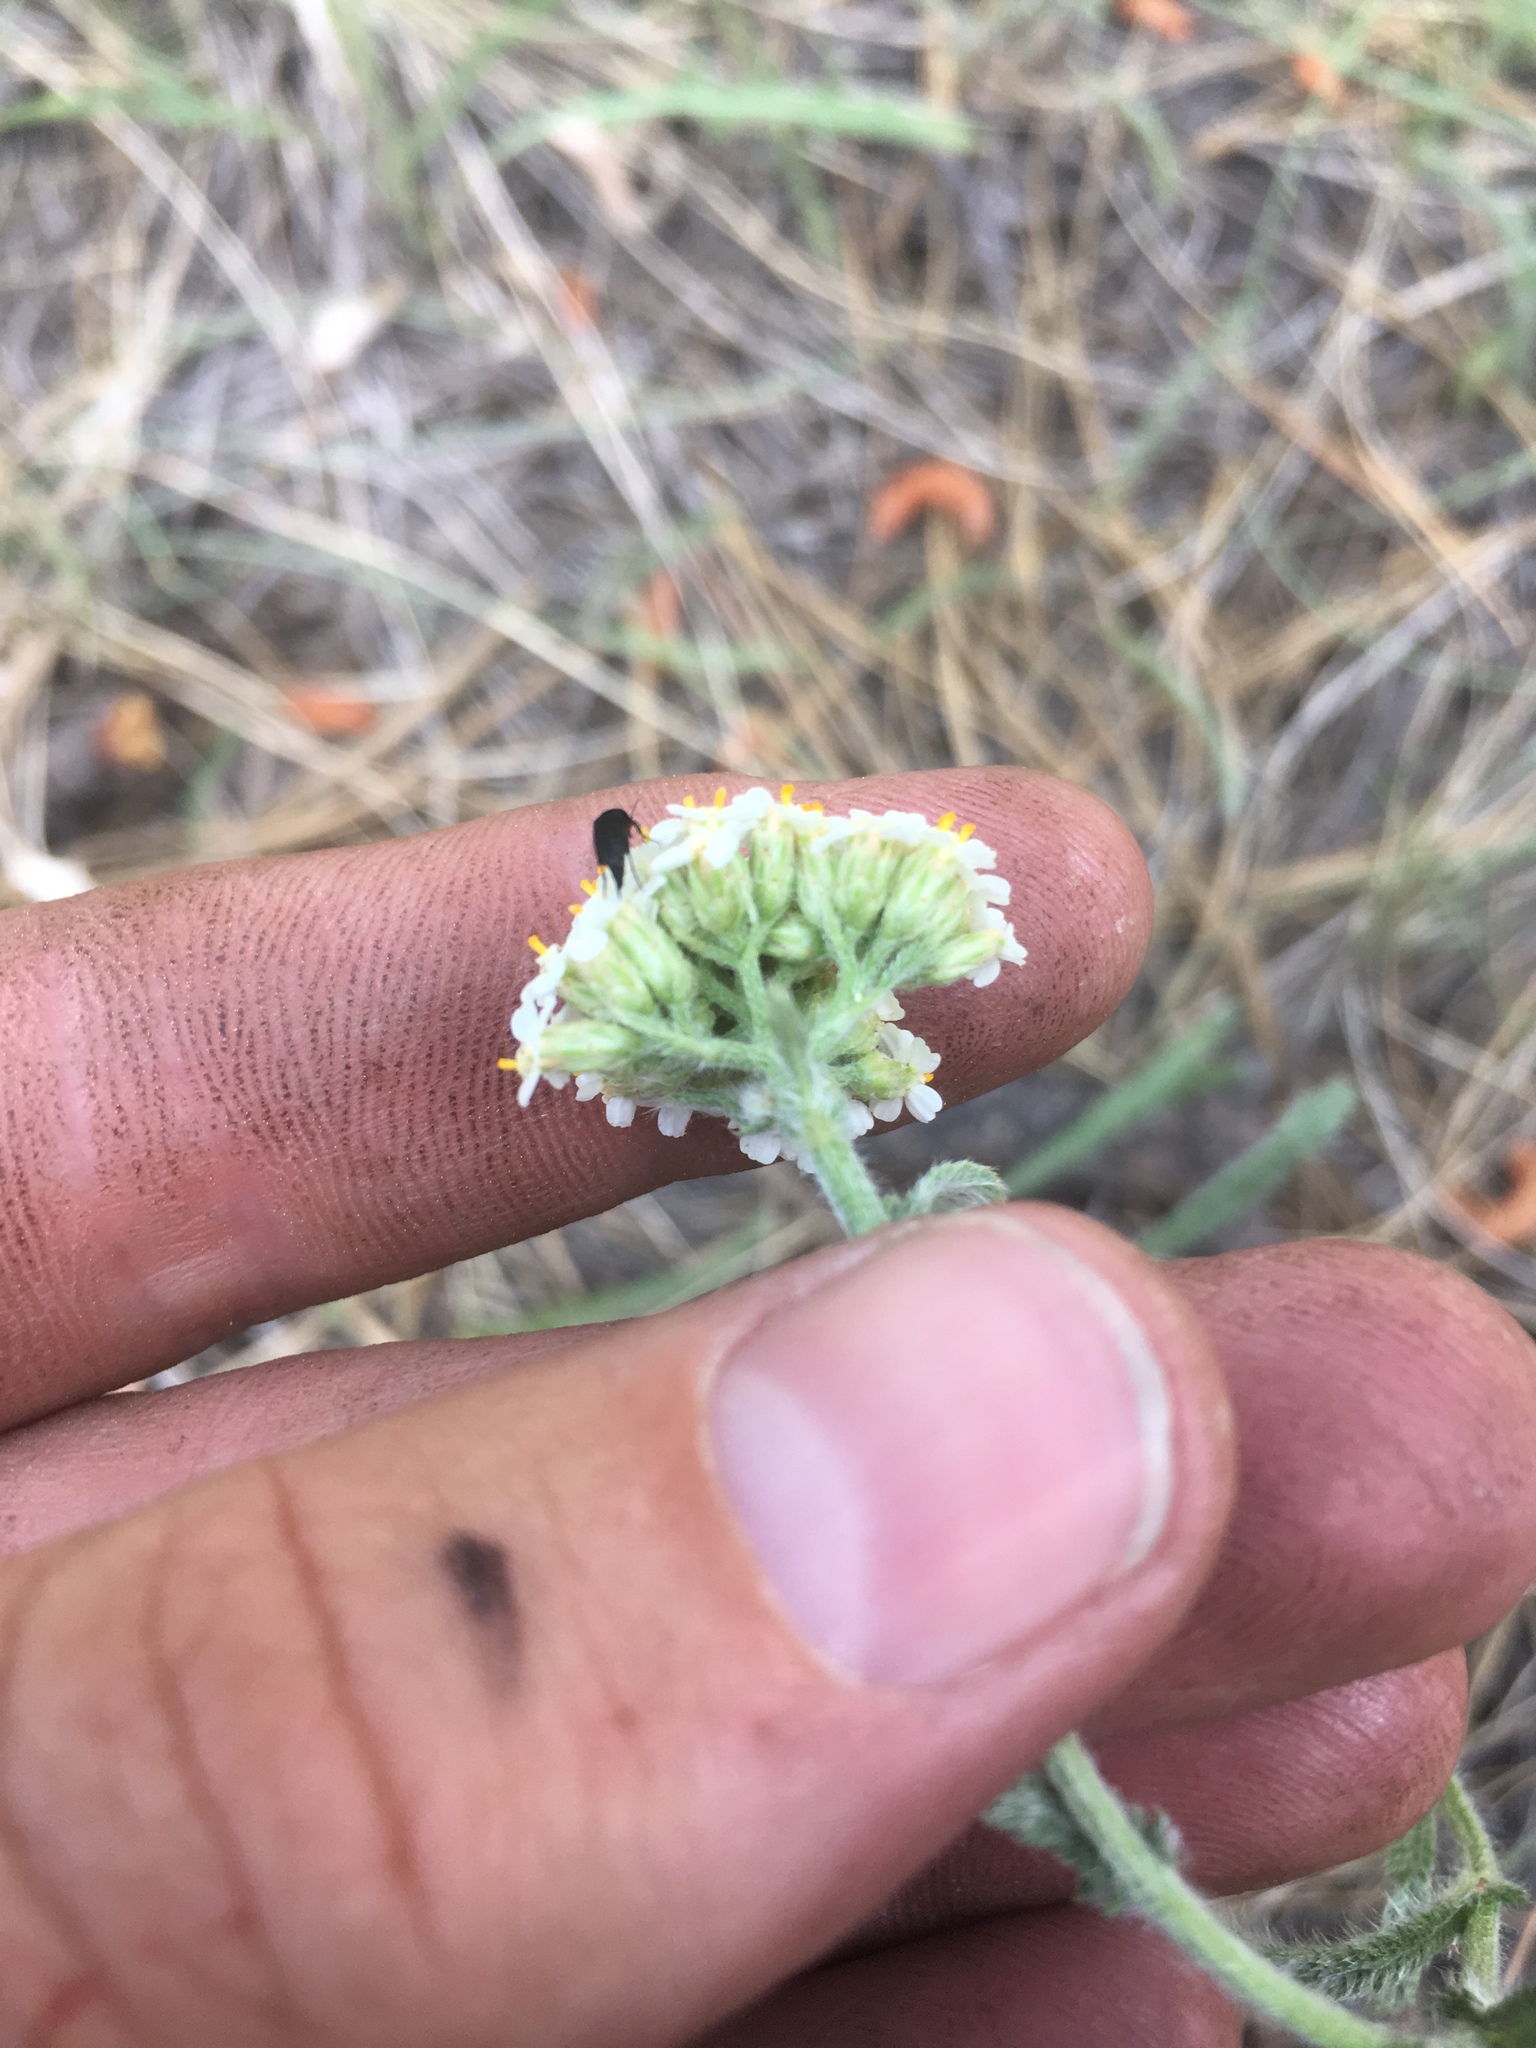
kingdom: Plantae
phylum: Tracheophyta
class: Magnoliopsida
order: Asterales
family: Asteraceae
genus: Achillea
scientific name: Achillea millefolium
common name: Yarrow
